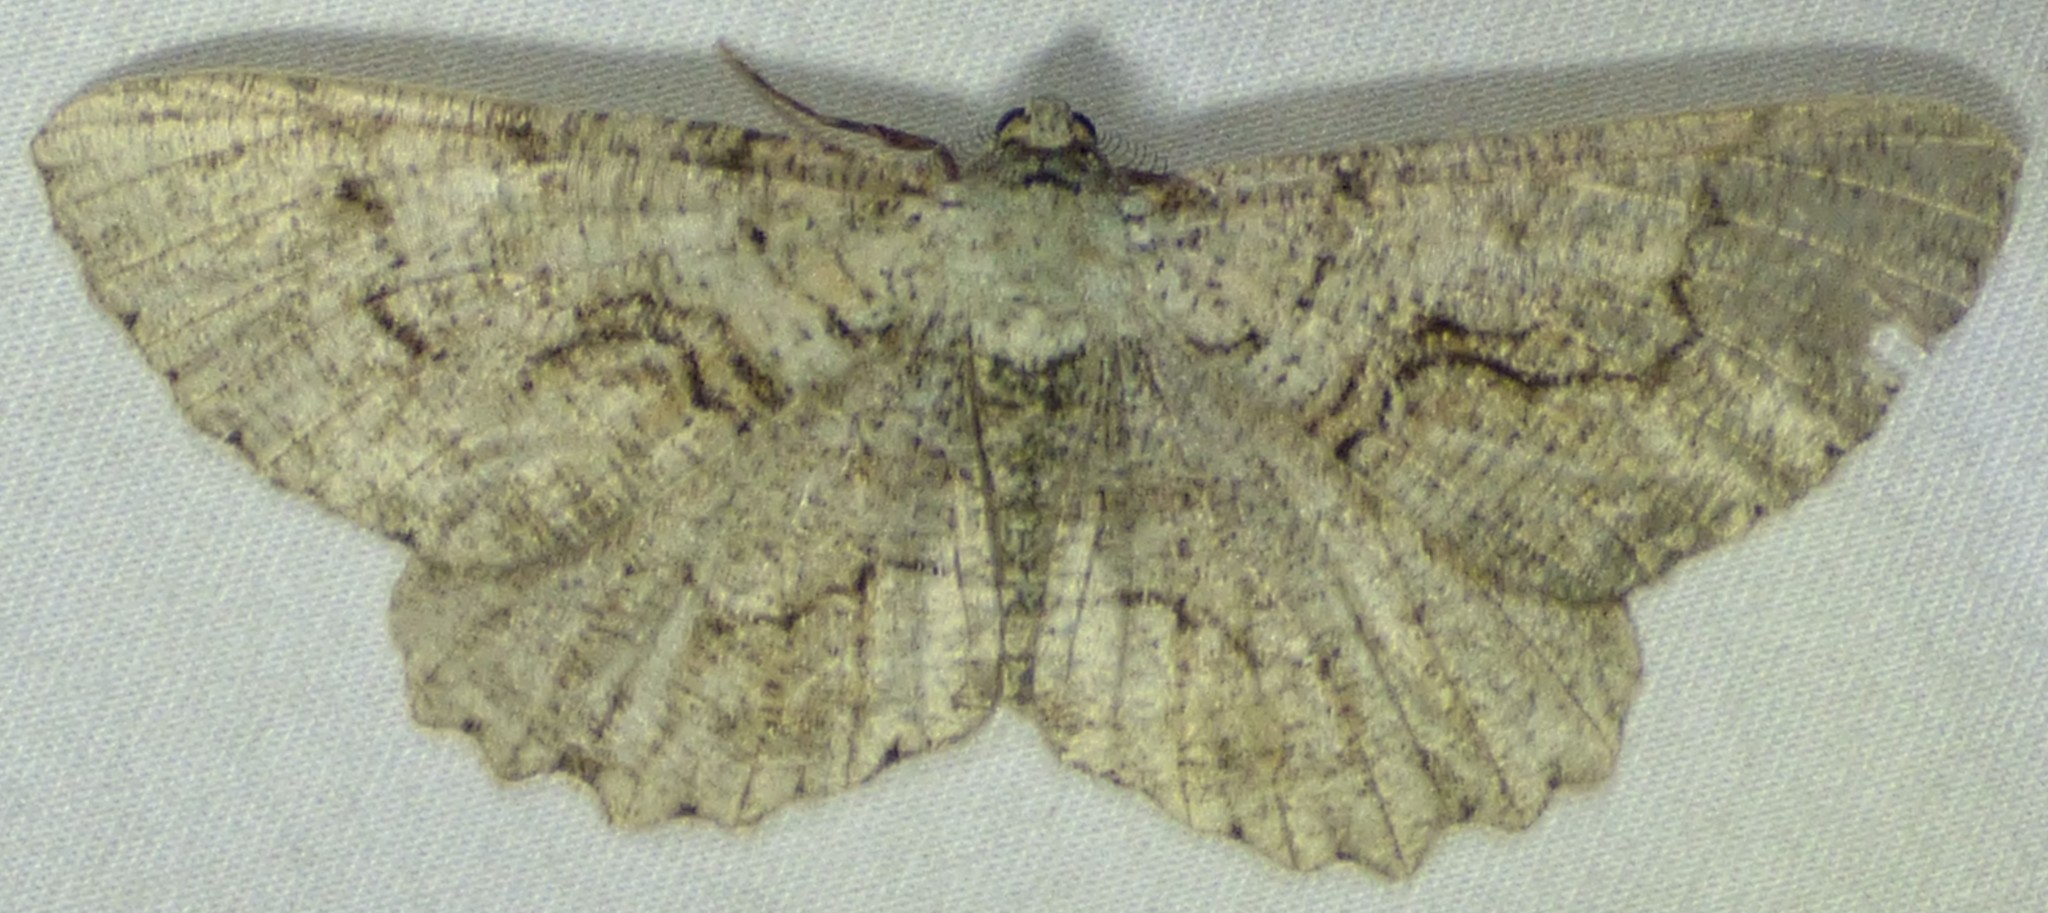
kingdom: Animalia
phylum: Arthropoda
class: Insecta
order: Lepidoptera
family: Geometridae
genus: Cymatophora
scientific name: Cymatophora approximaria
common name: Giant gray moth
